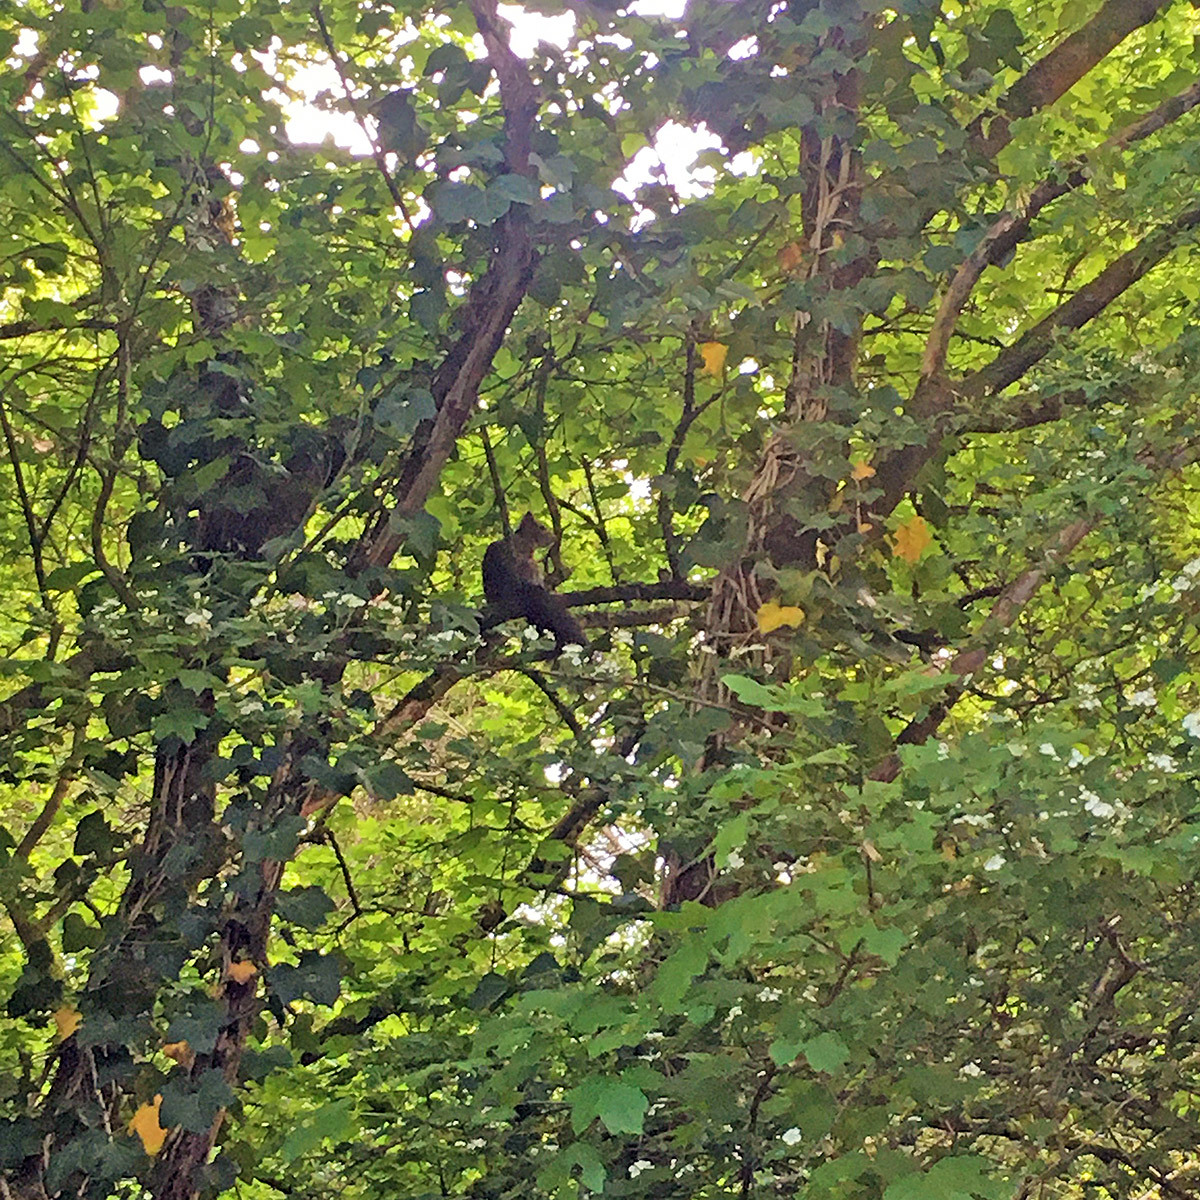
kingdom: Animalia
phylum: Chordata
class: Mammalia
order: Rodentia
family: Sciuridae
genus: Sciurus
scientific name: Sciurus vulgaris
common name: Eurasian red squirrel
